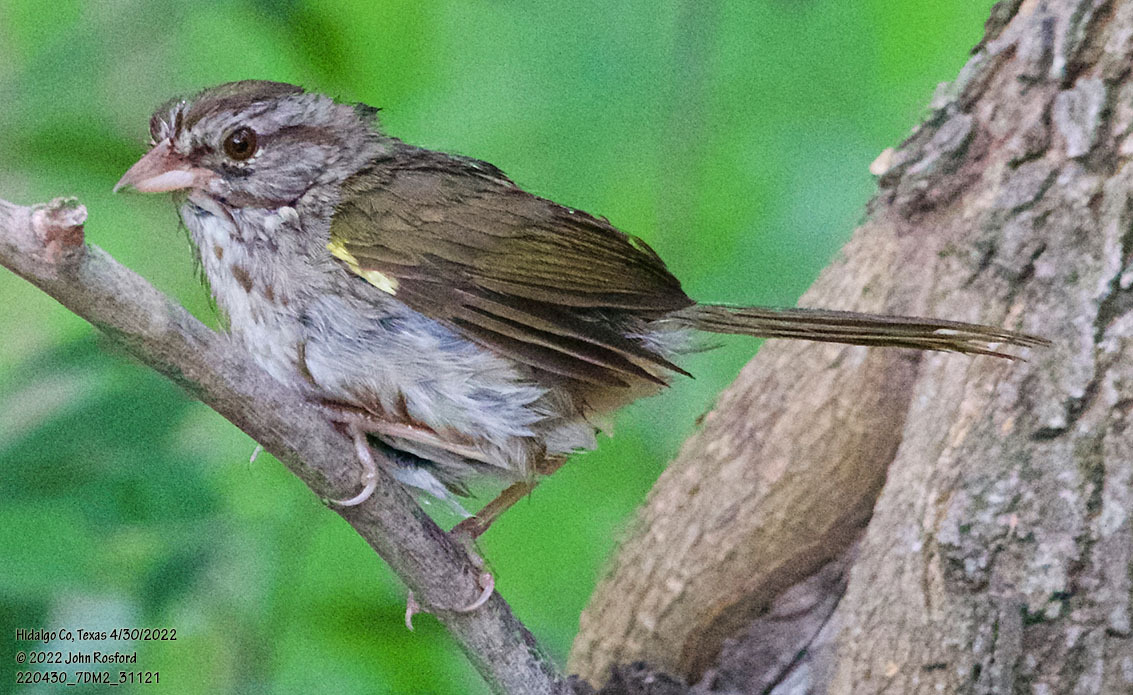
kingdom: Animalia
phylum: Chordata
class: Aves
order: Passeriformes
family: Passerellidae
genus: Arremonops
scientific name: Arremonops rufivirgatus
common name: Olive sparrow
